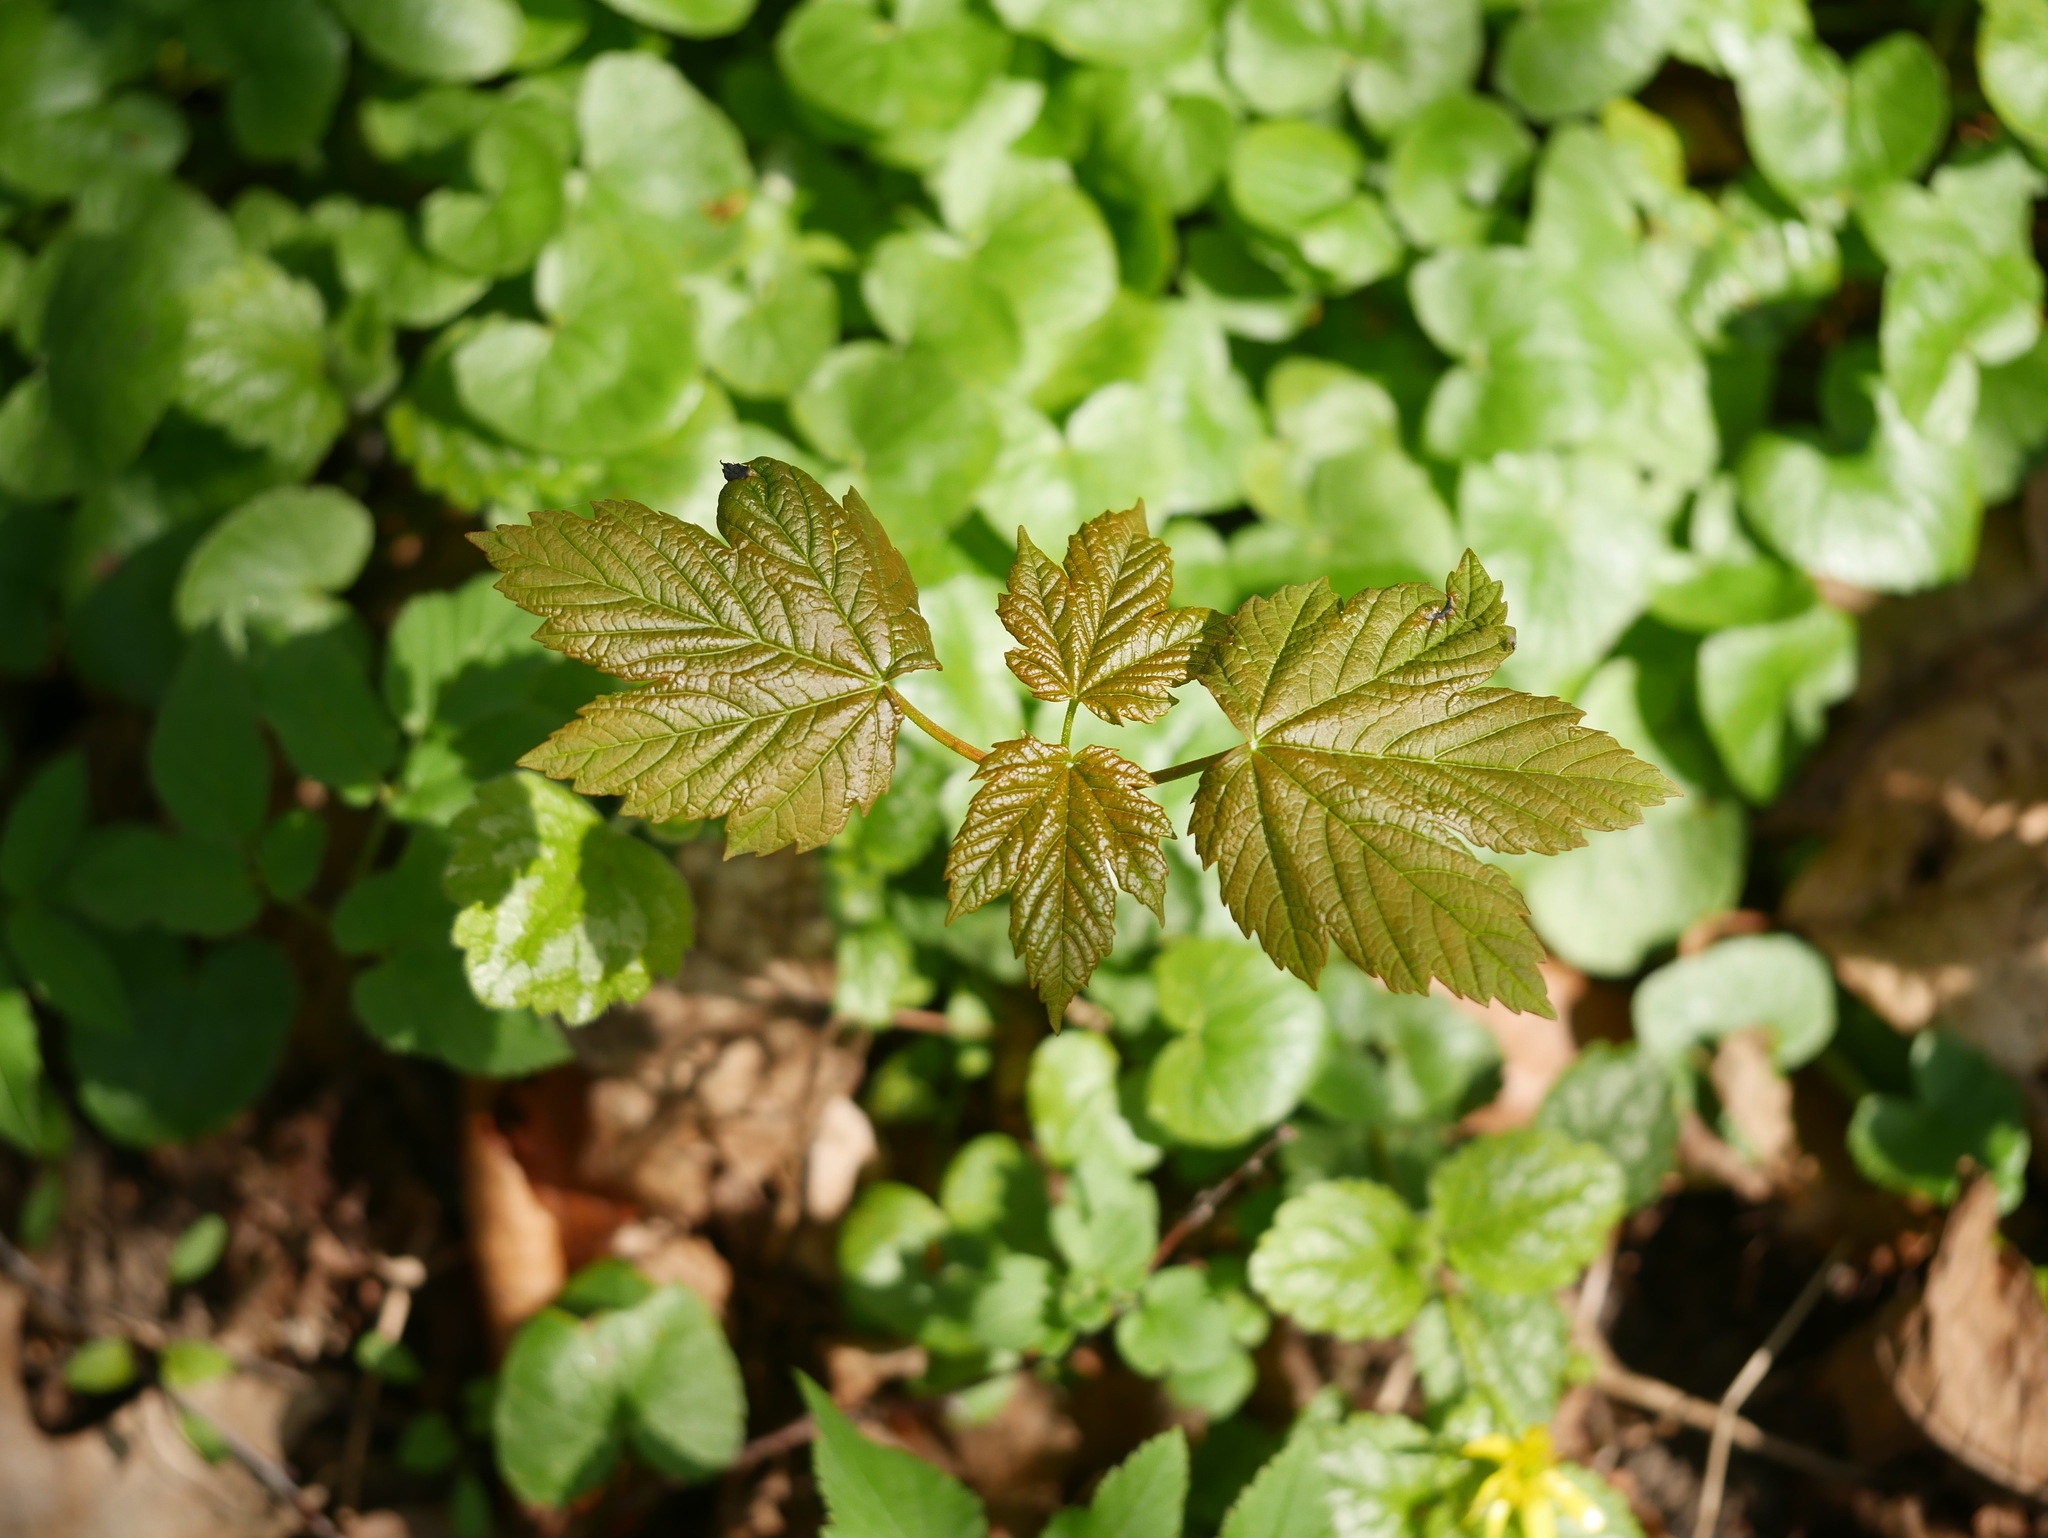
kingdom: Plantae
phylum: Tracheophyta
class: Magnoliopsida
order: Sapindales
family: Sapindaceae
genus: Acer
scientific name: Acer pseudoplatanus
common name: Sycamore
